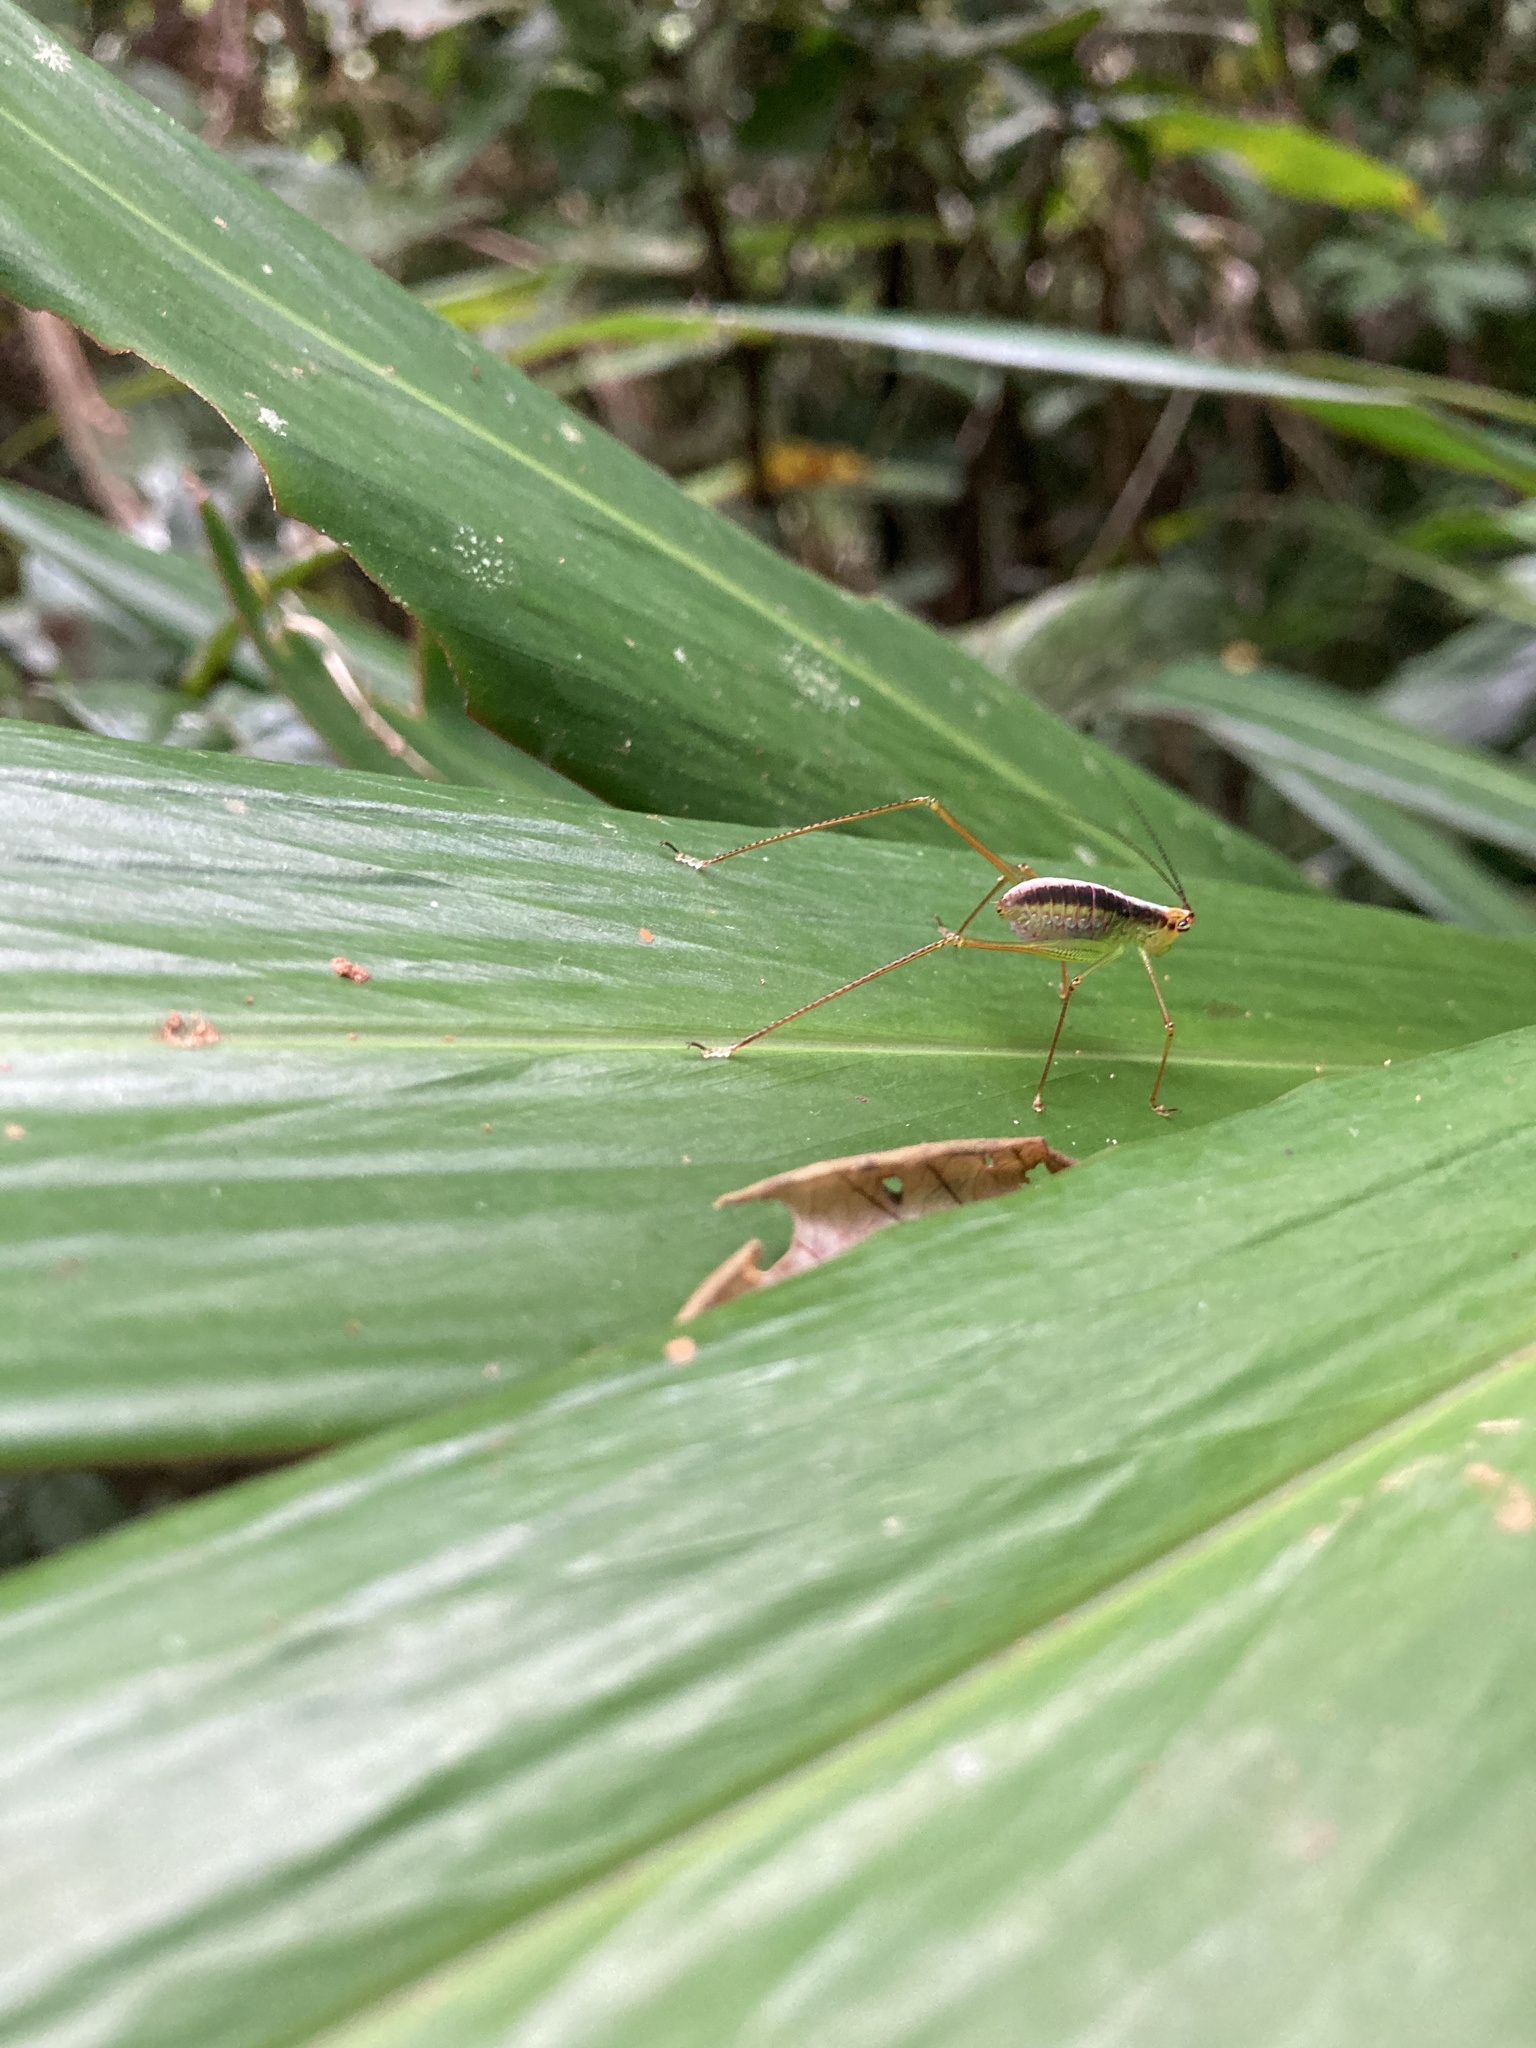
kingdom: Animalia
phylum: Arthropoda
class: Insecta
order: Orthoptera
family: Tettigoniidae
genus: Leucopodoptera
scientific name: Leucopodoptera eumundii
